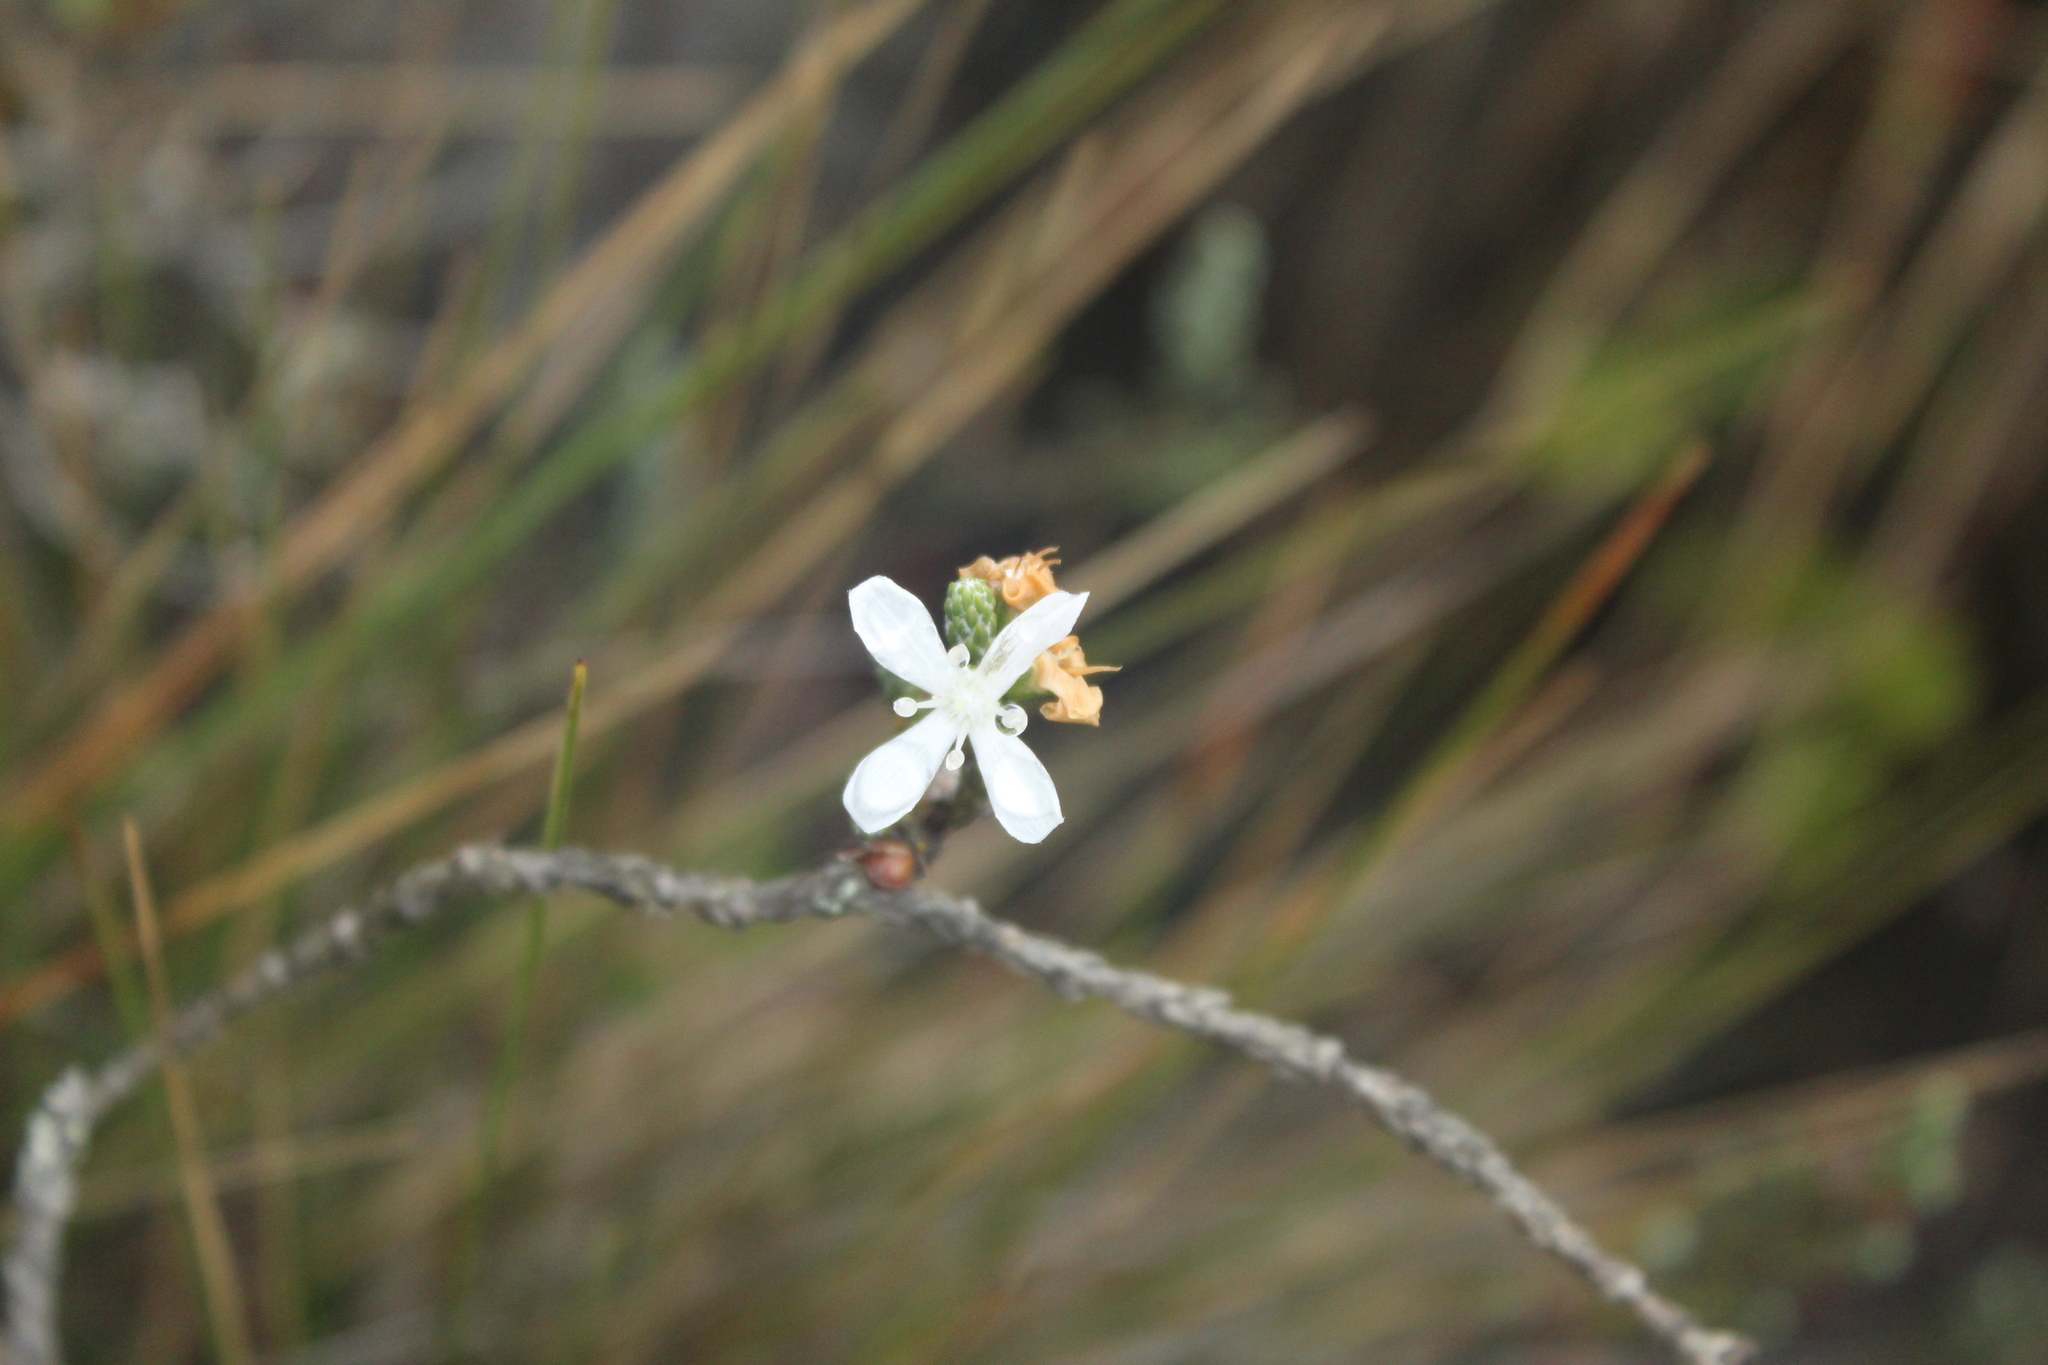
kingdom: Plantae
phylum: Tracheophyta
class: Magnoliopsida
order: Lamiales
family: Plantaginaceae
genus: Aragoa
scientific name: Aragoa cupressina
